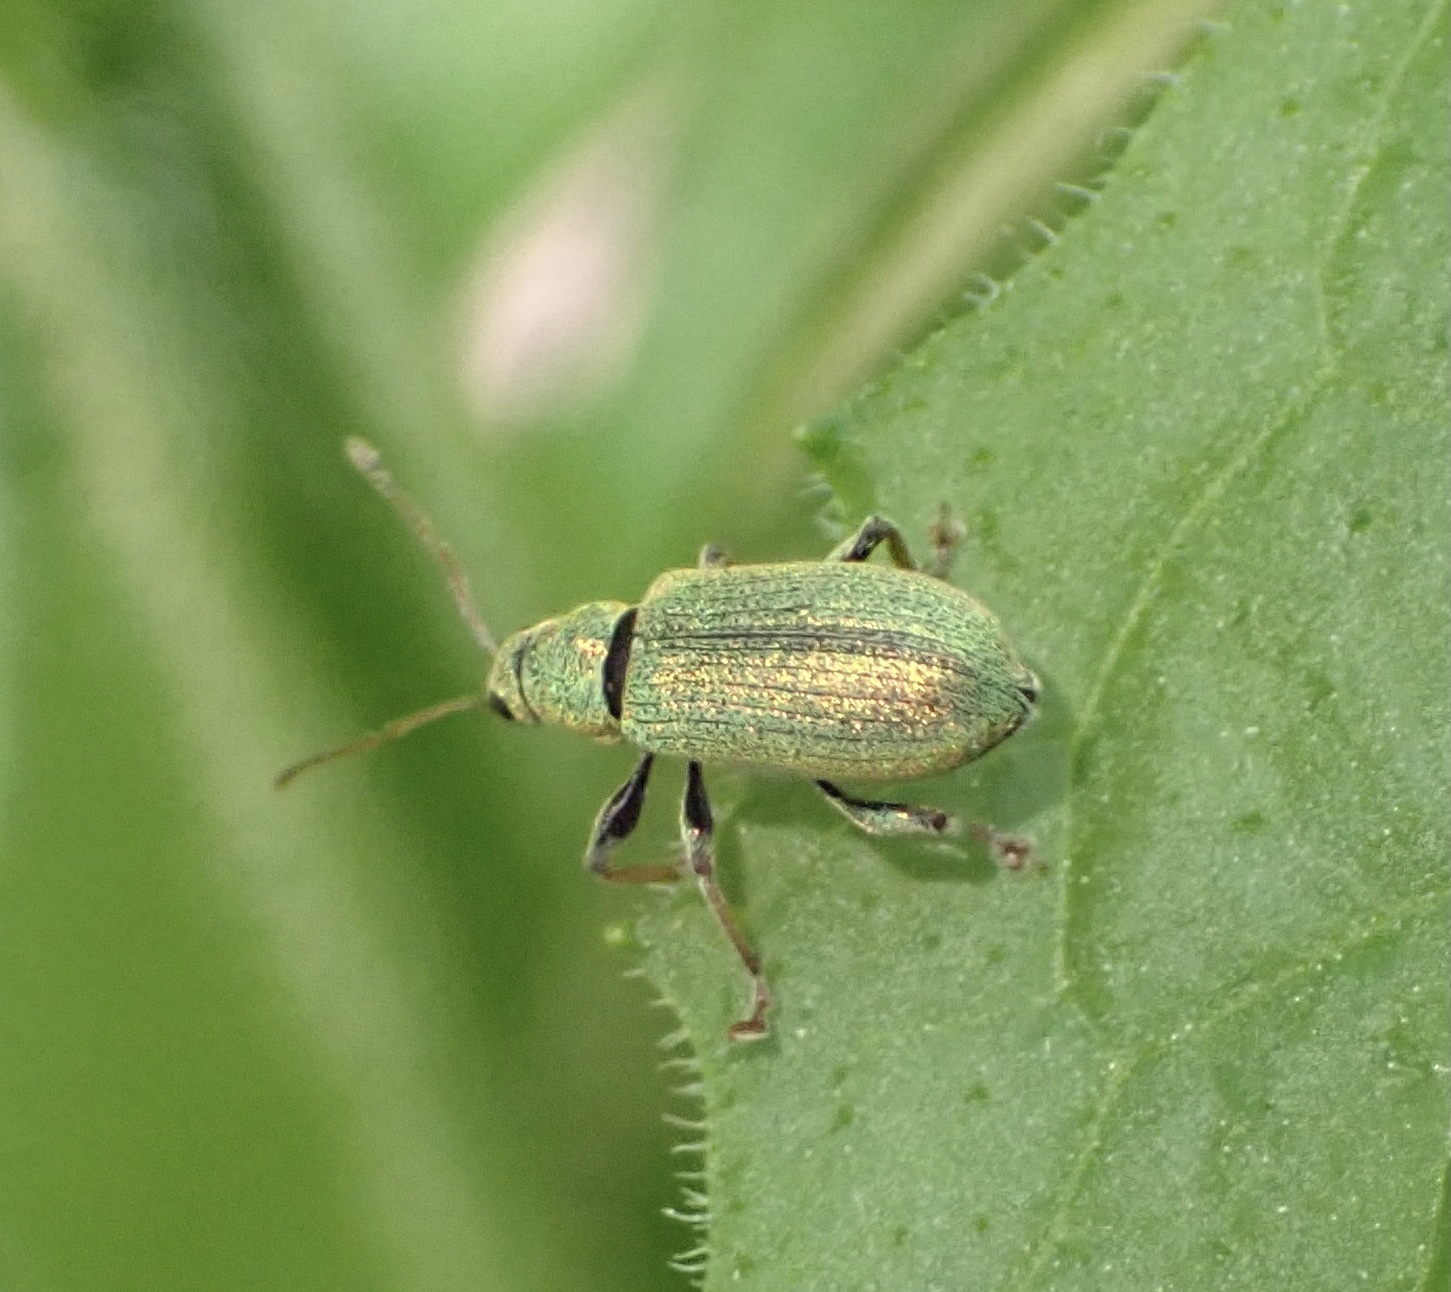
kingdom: Animalia
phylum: Arthropoda
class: Insecta
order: Coleoptera
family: Curculionidae
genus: Phyllobius
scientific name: Phyllobius argentatus
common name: Silver-green leaf weevil
